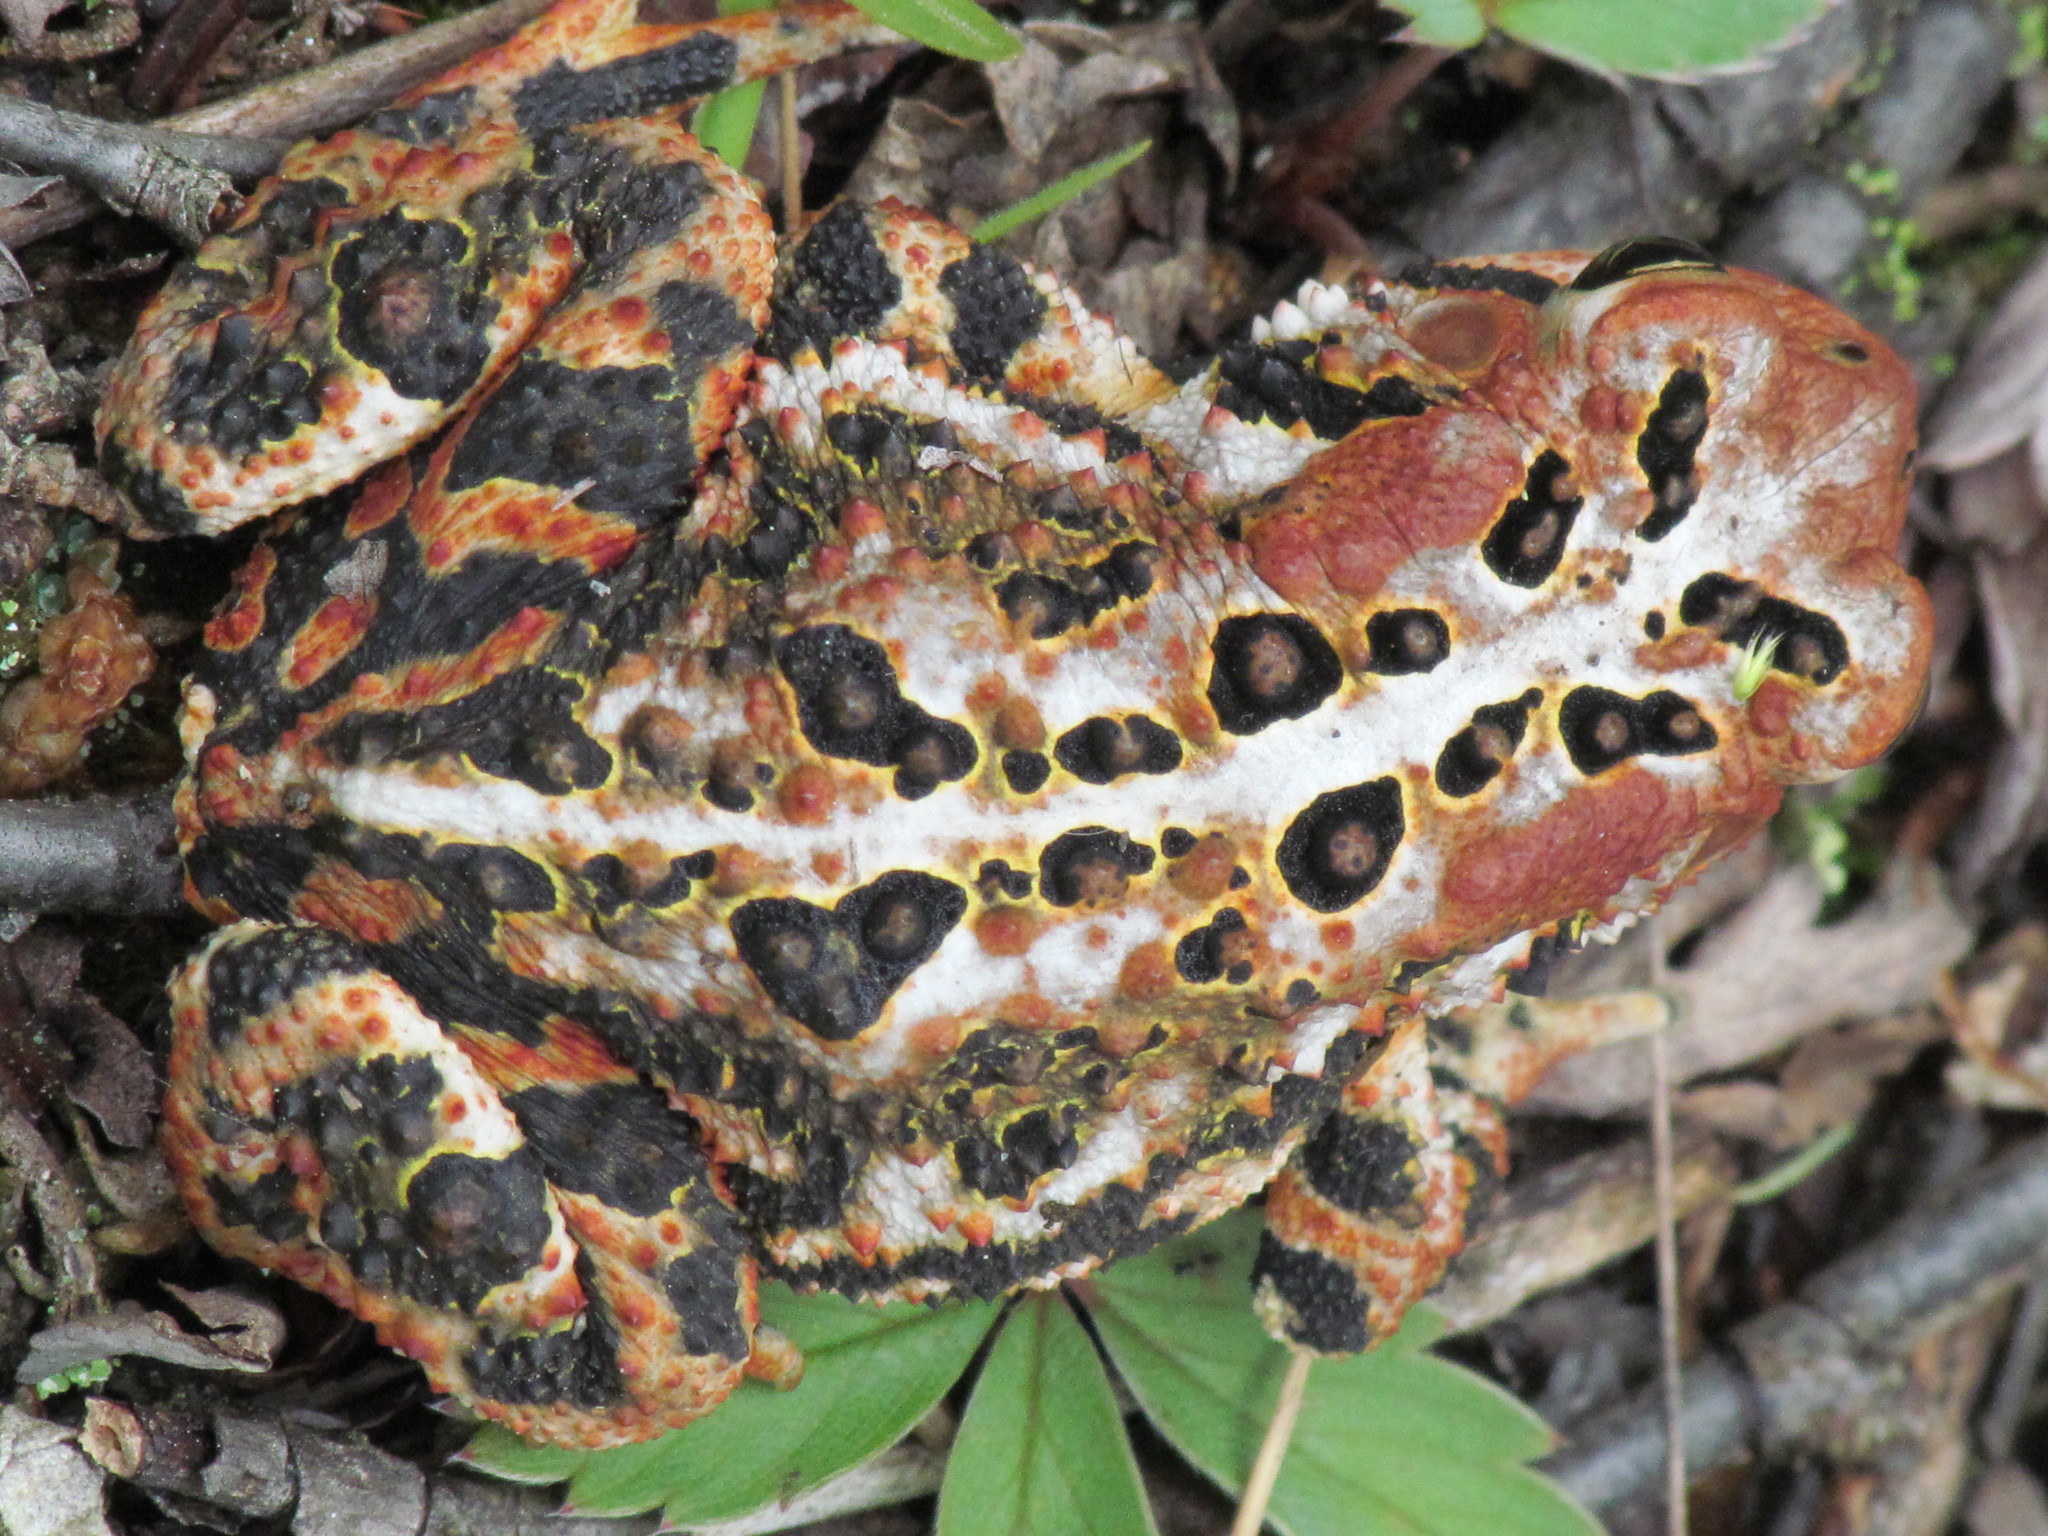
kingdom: Animalia
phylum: Chordata
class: Amphibia
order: Anura
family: Bufonidae
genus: Anaxyrus
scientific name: Anaxyrus americanus
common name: American toad
